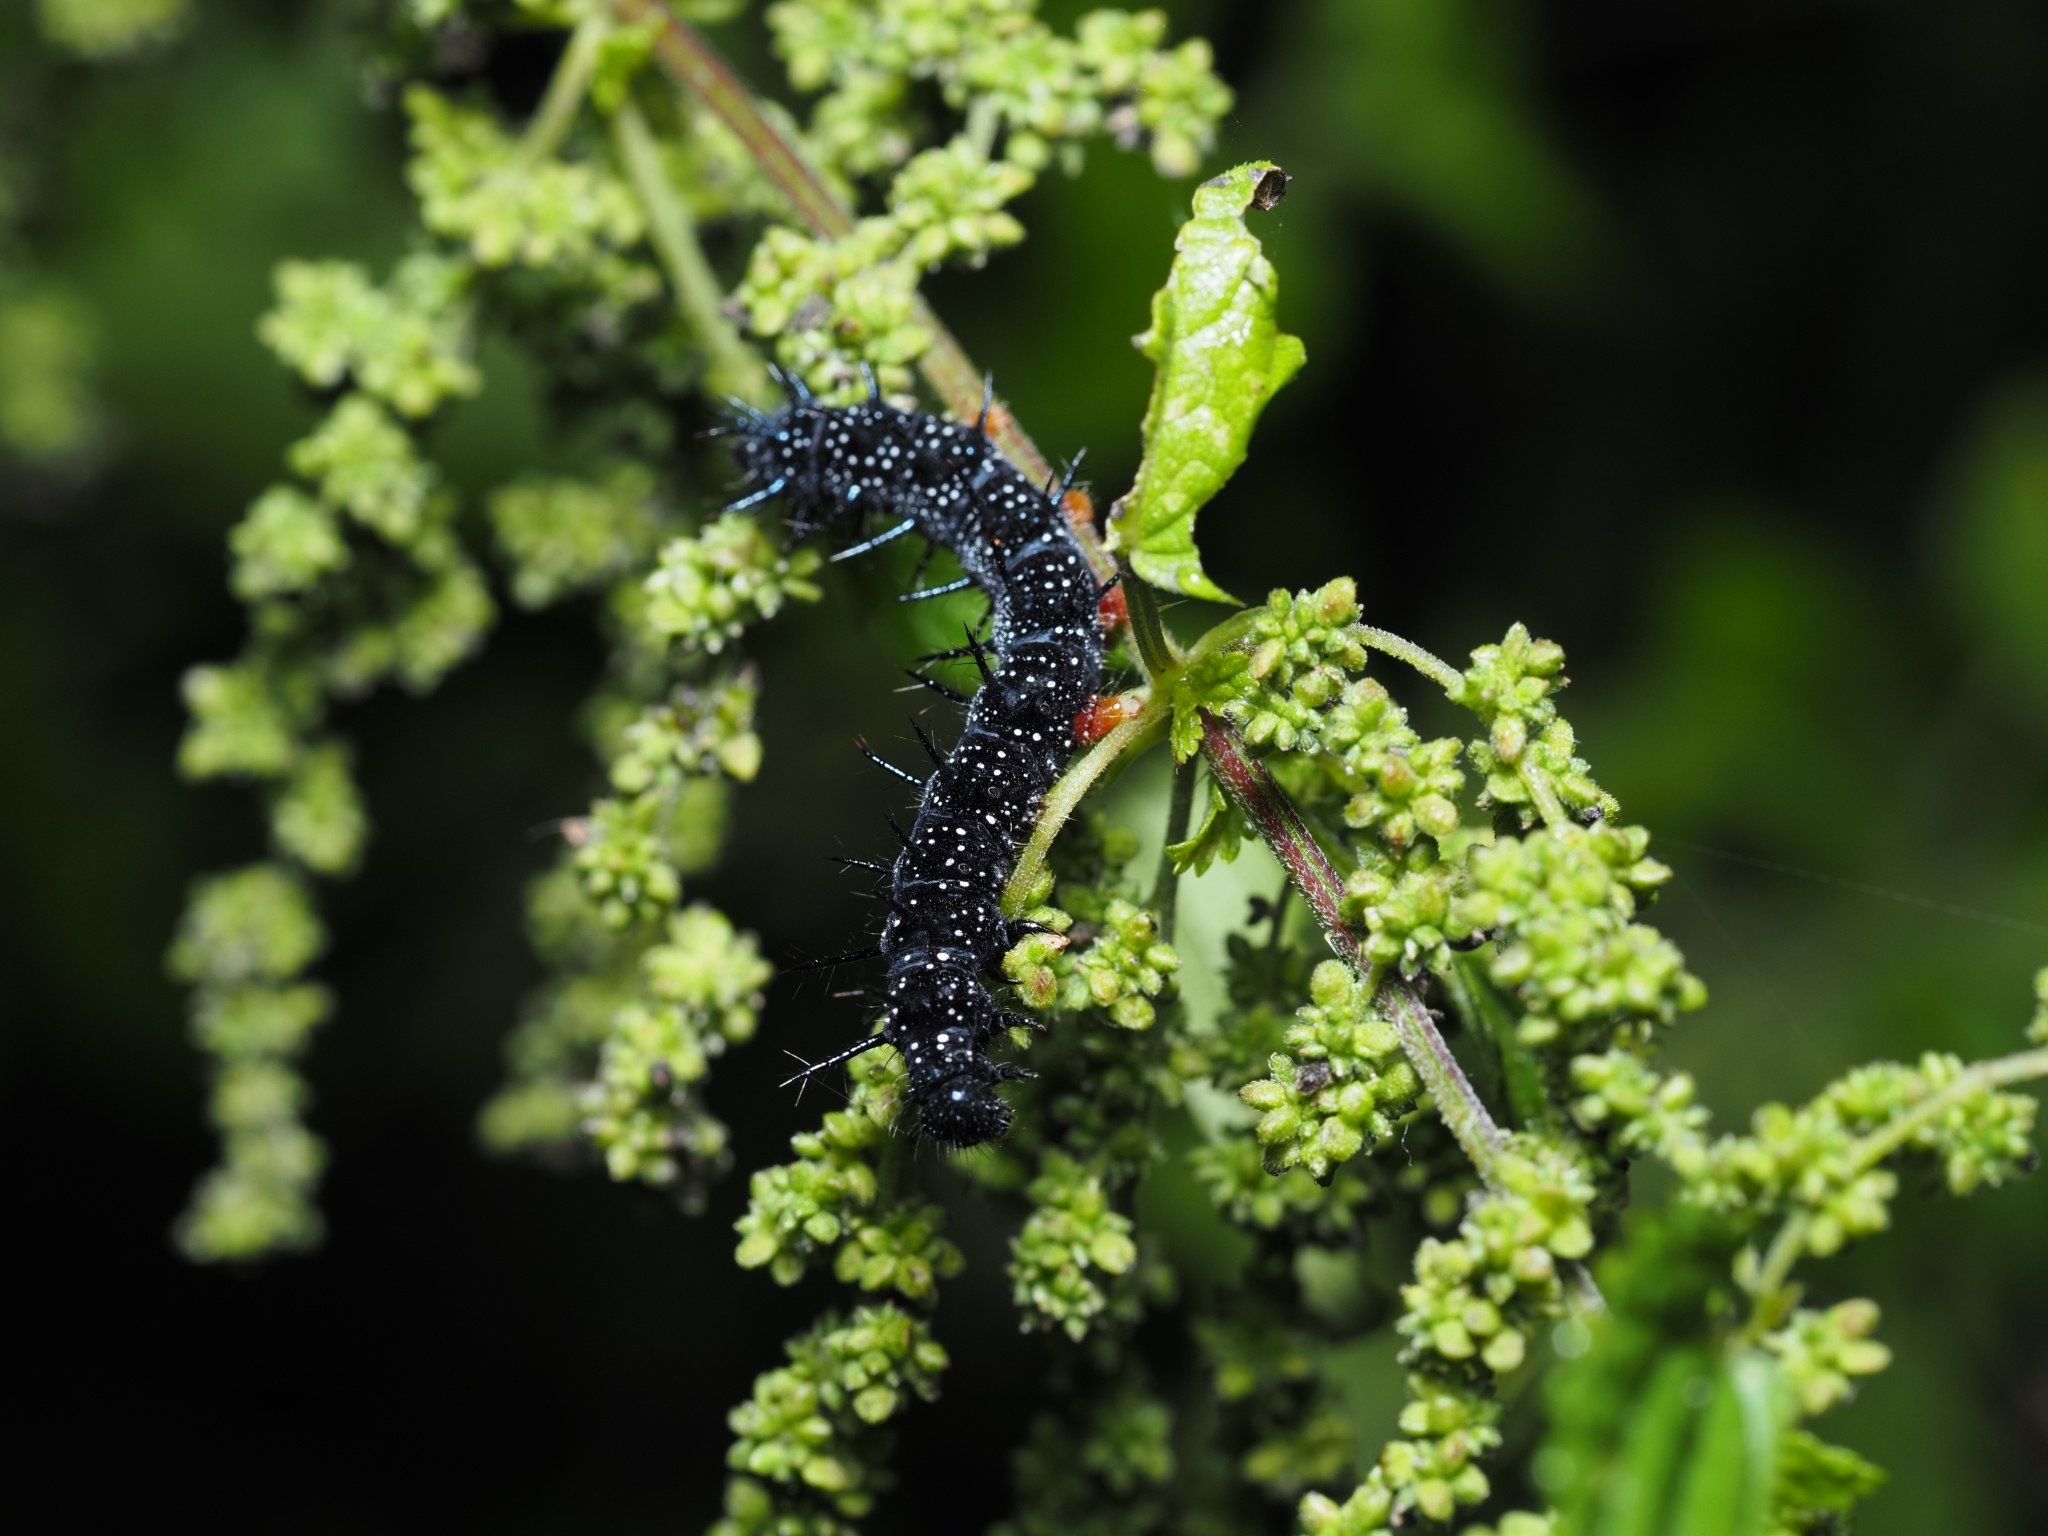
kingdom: Animalia
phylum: Arthropoda
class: Insecta
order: Lepidoptera
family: Nymphalidae
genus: Aglais
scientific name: Aglais io
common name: Peacock
